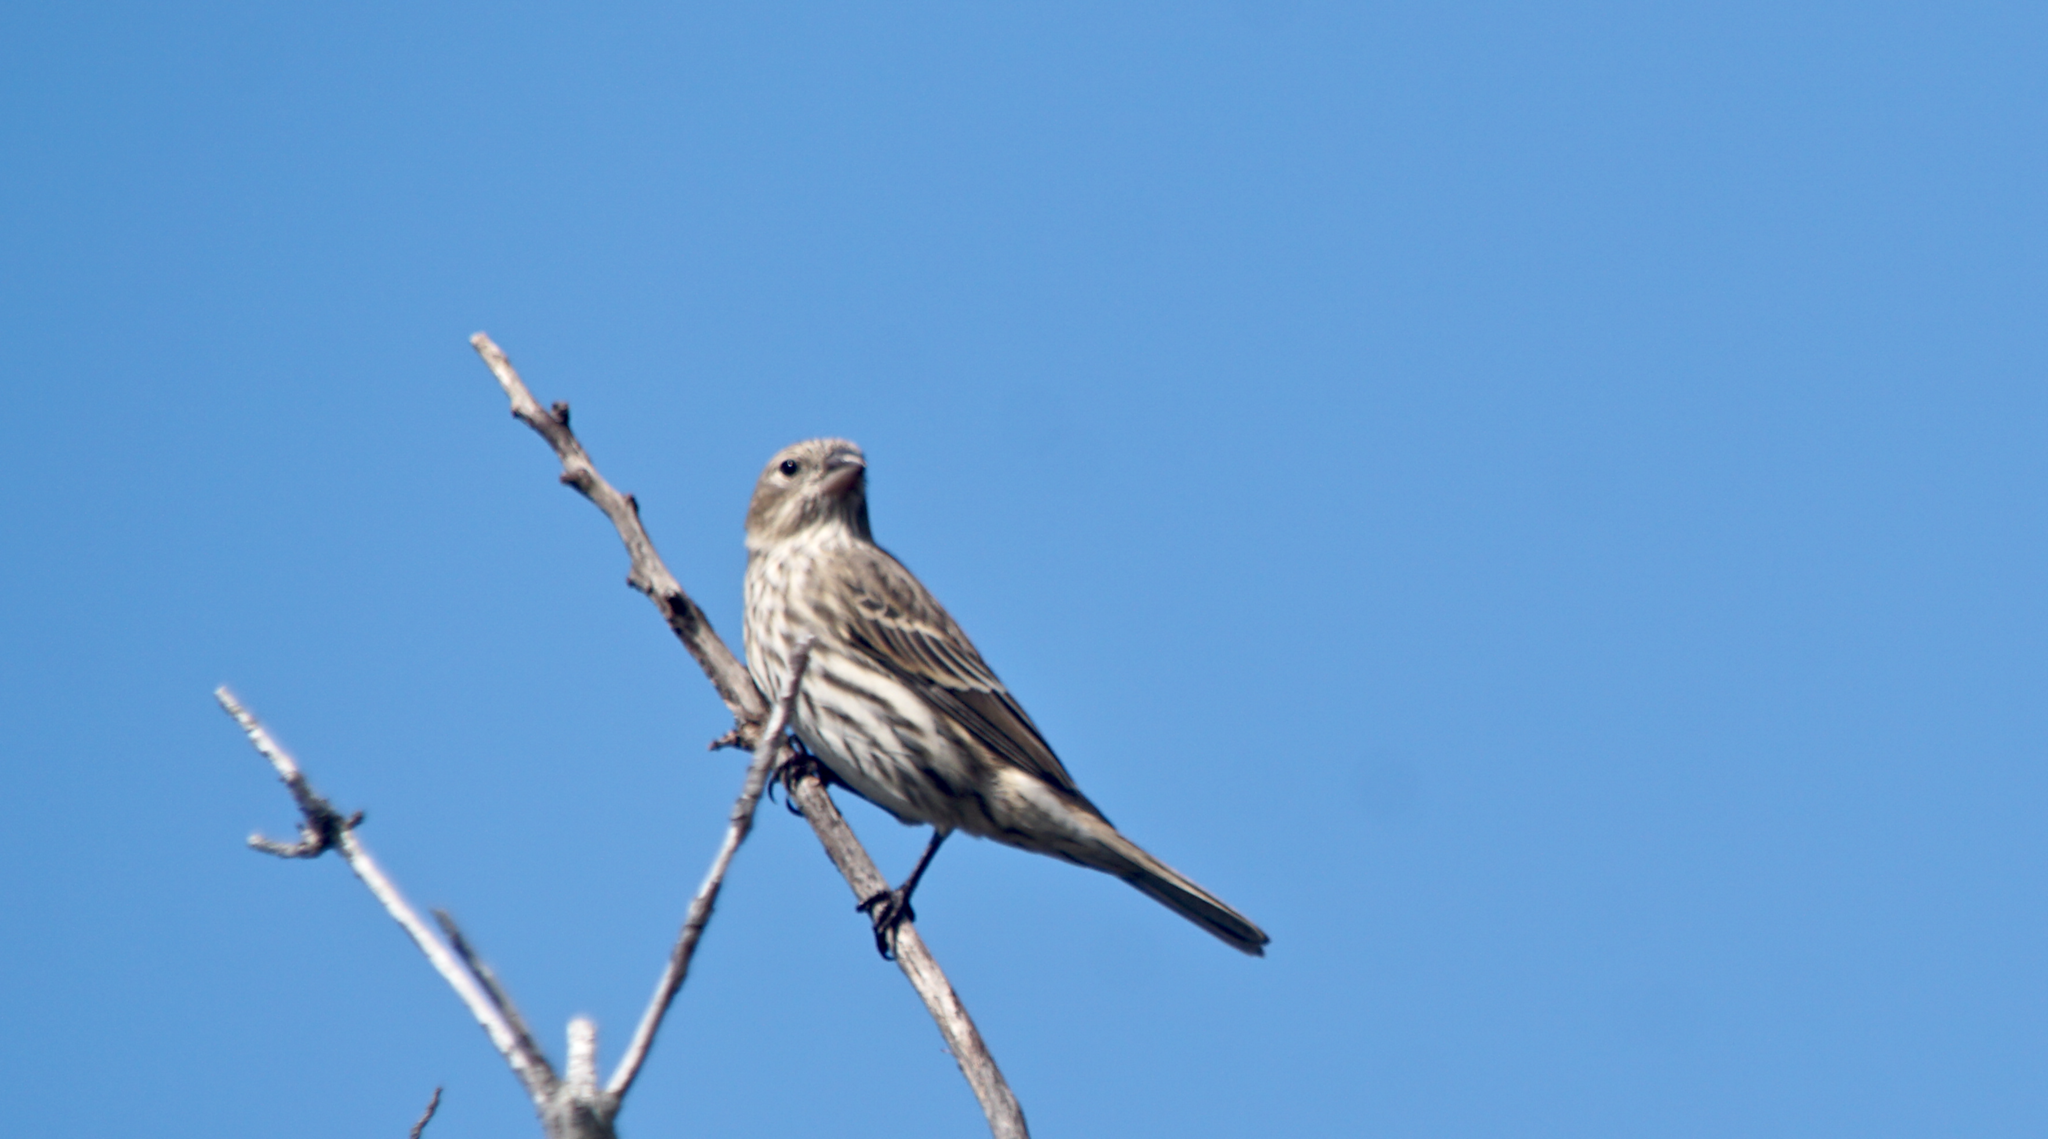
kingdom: Animalia
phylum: Chordata
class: Aves
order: Passeriformes
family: Fringillidae
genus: Haemorhous
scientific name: Haemorhous mexicanus
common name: House finch
